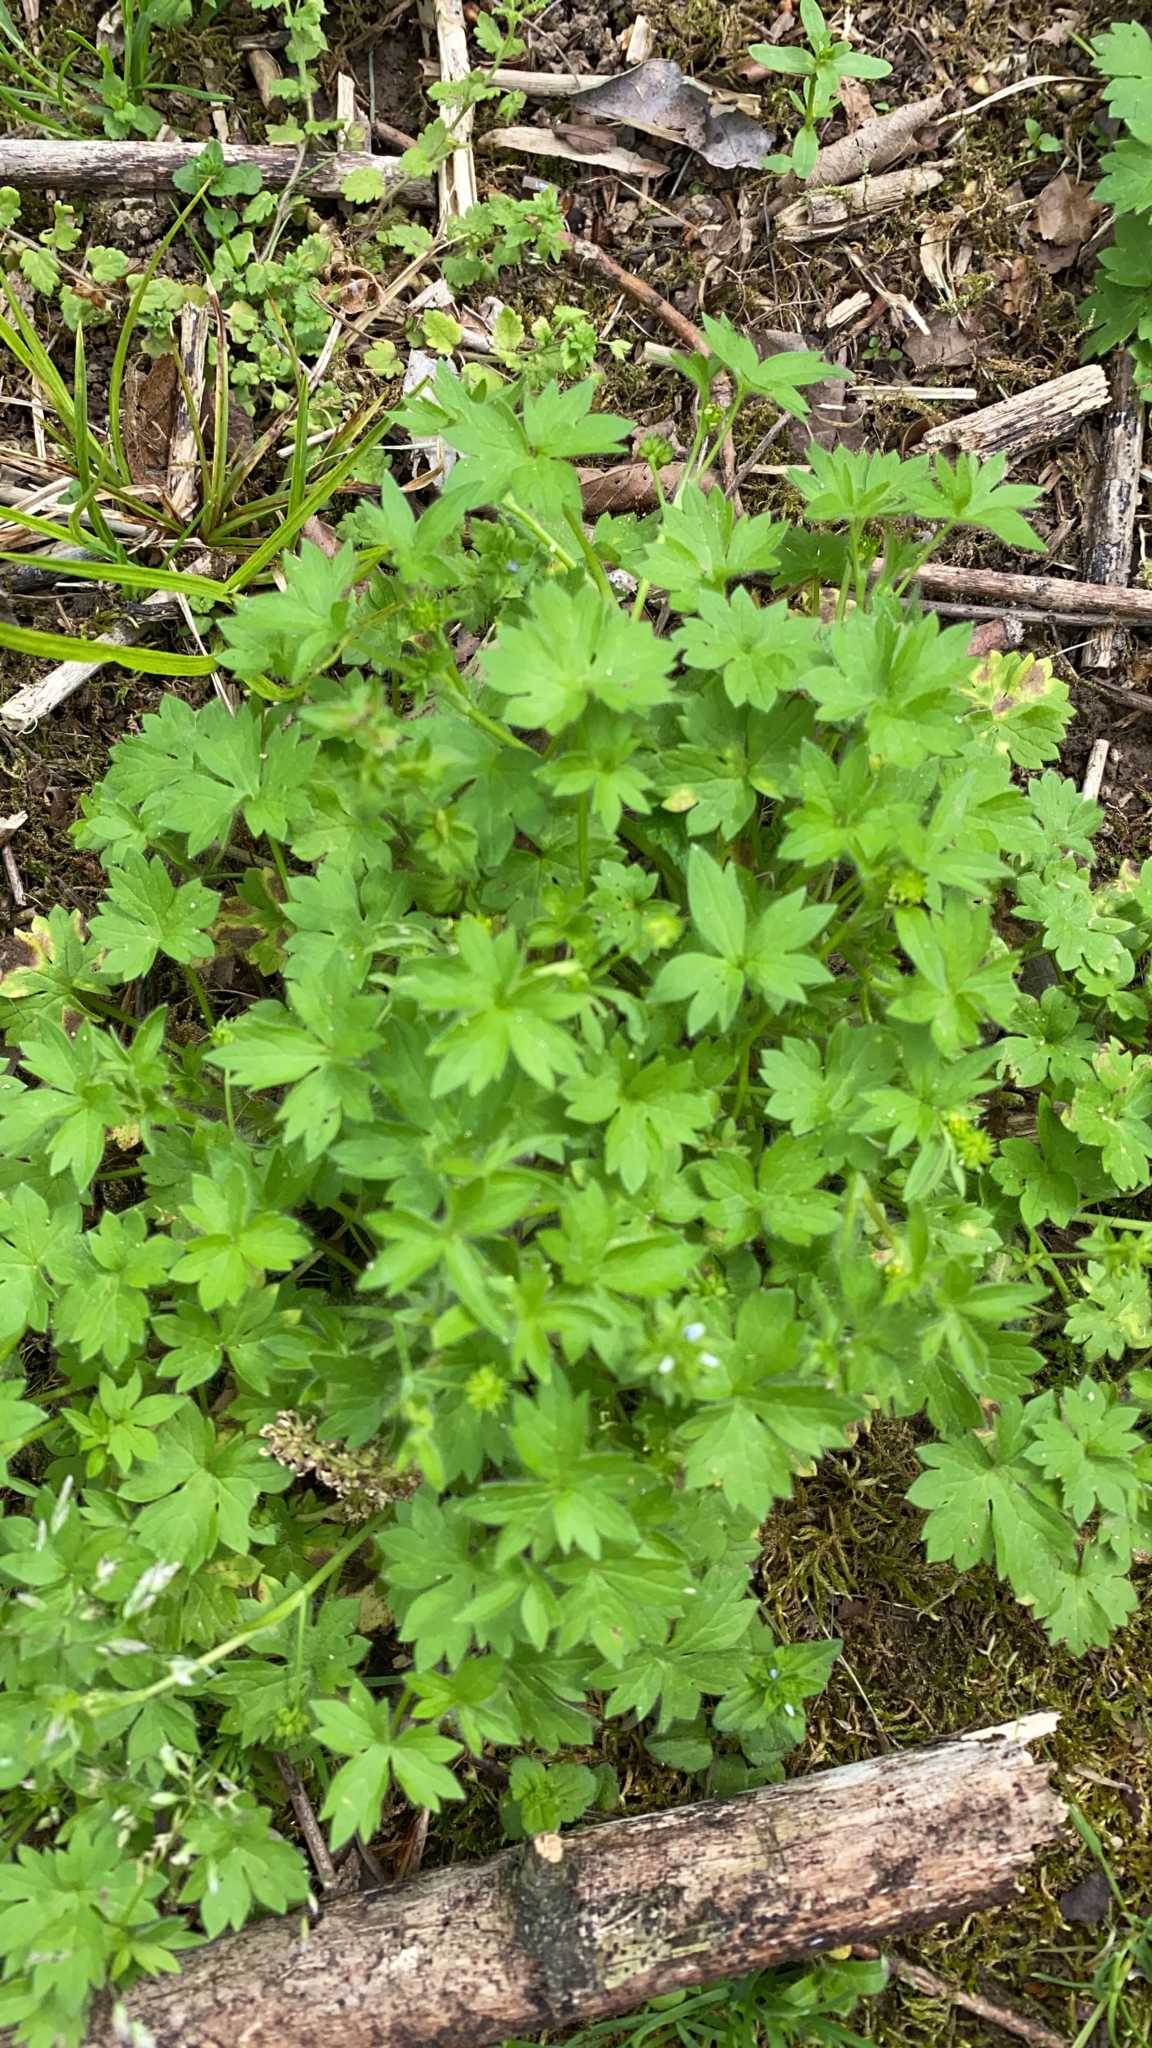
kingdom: Plantae
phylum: Tracheophyta
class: Magnoliopsida
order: Ranunculales
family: Ranunculaceae
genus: Ranunculus
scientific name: Ranunculus parviflorus
